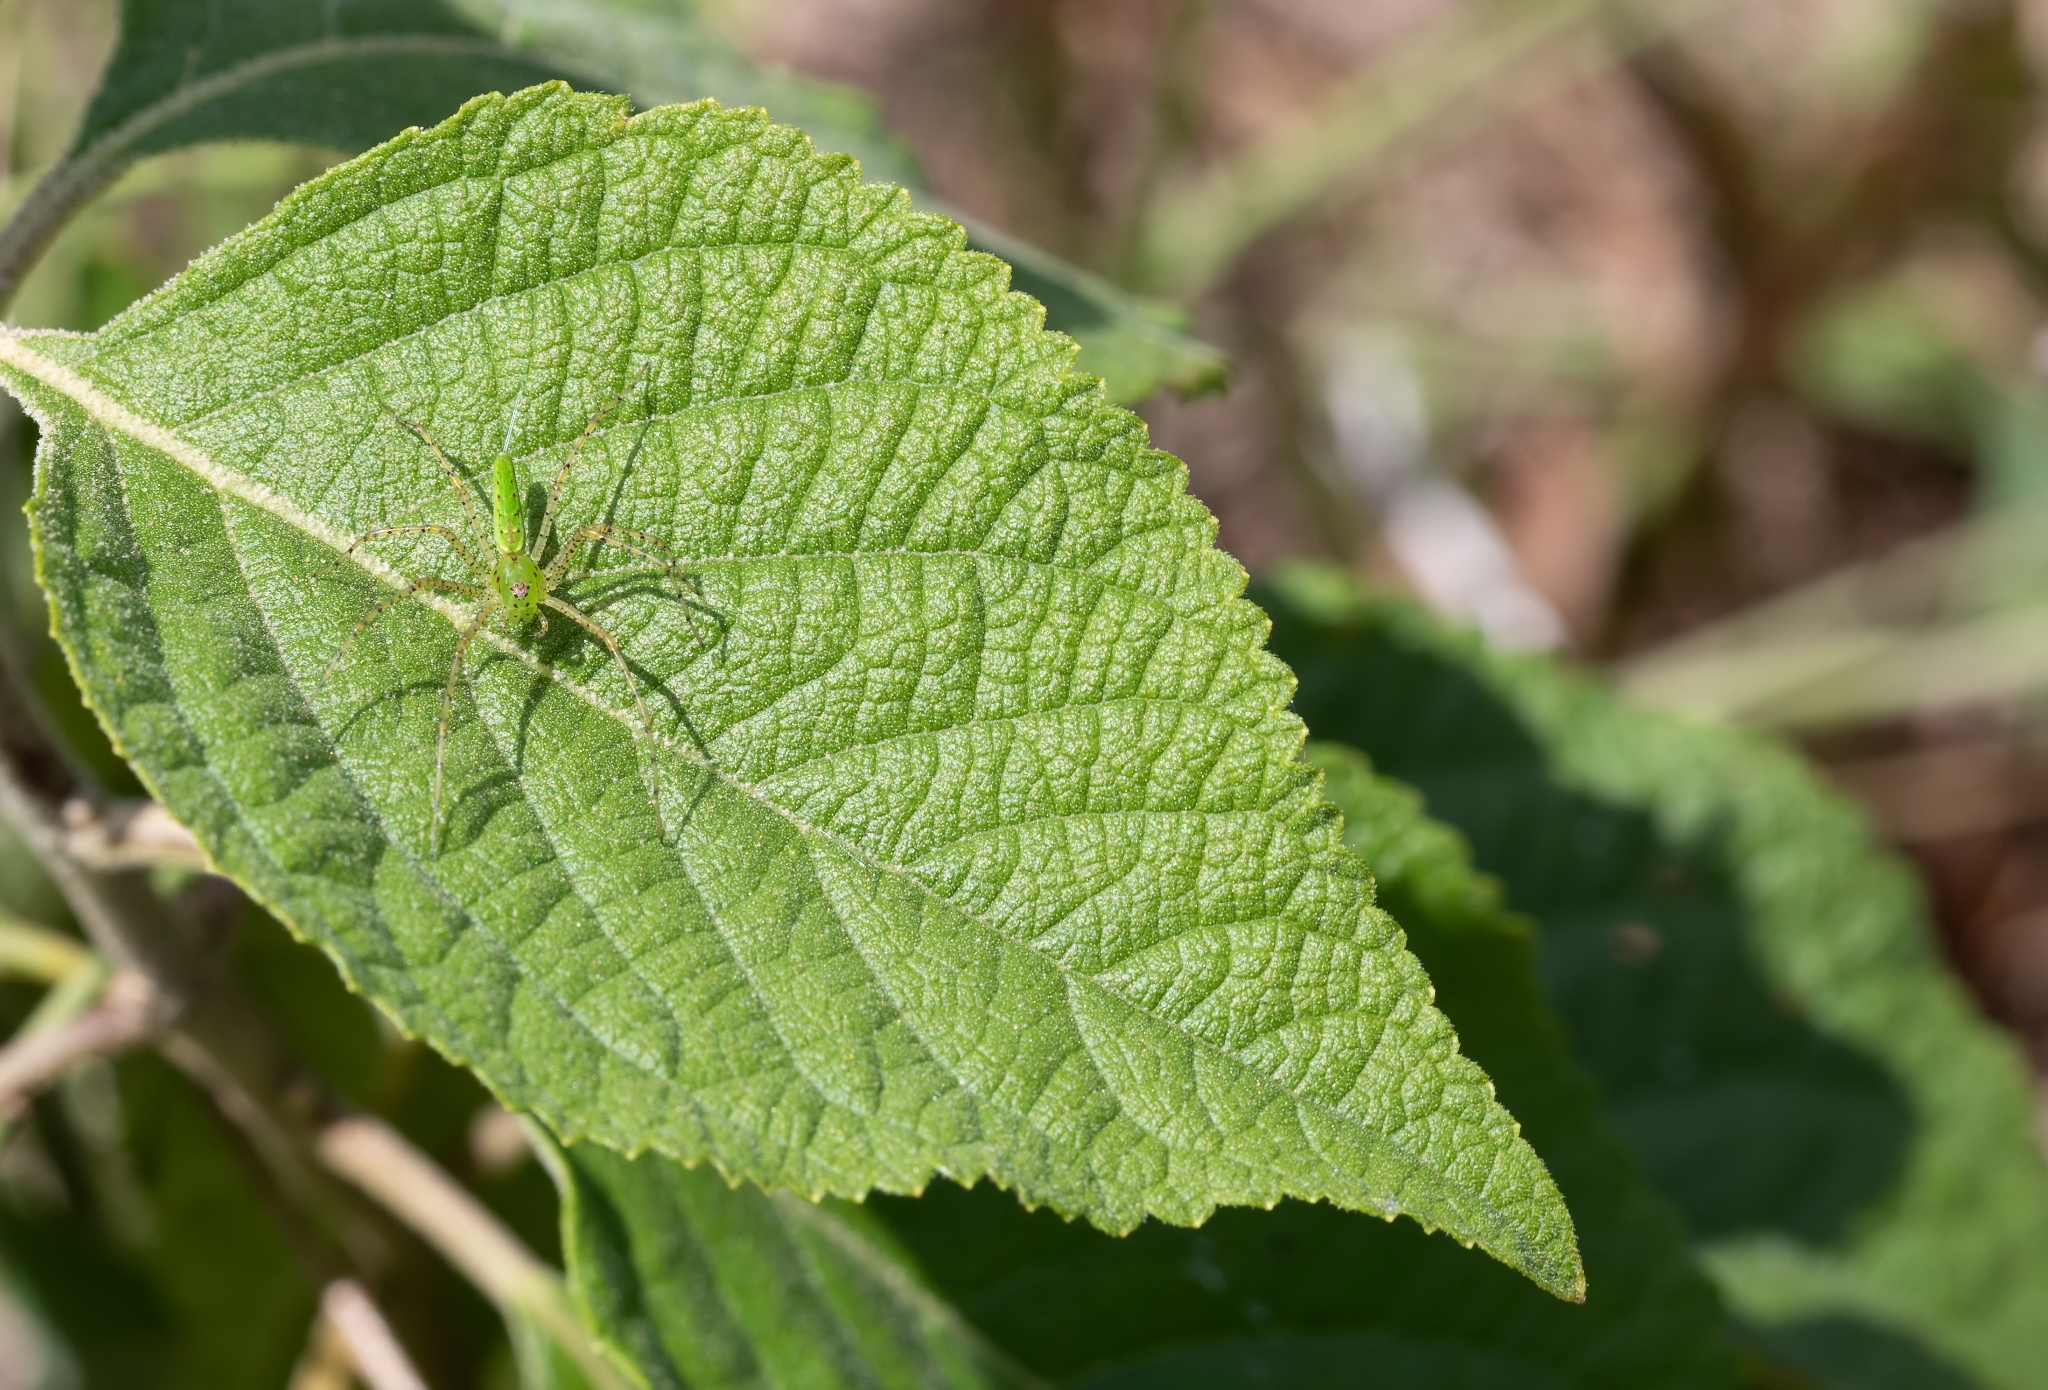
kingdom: Animalia
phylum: Arthropoda
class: Arachnida
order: Araneae
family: Oxyopidae
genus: Peucetia
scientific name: Peucetia viridans
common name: Lynx spiders
